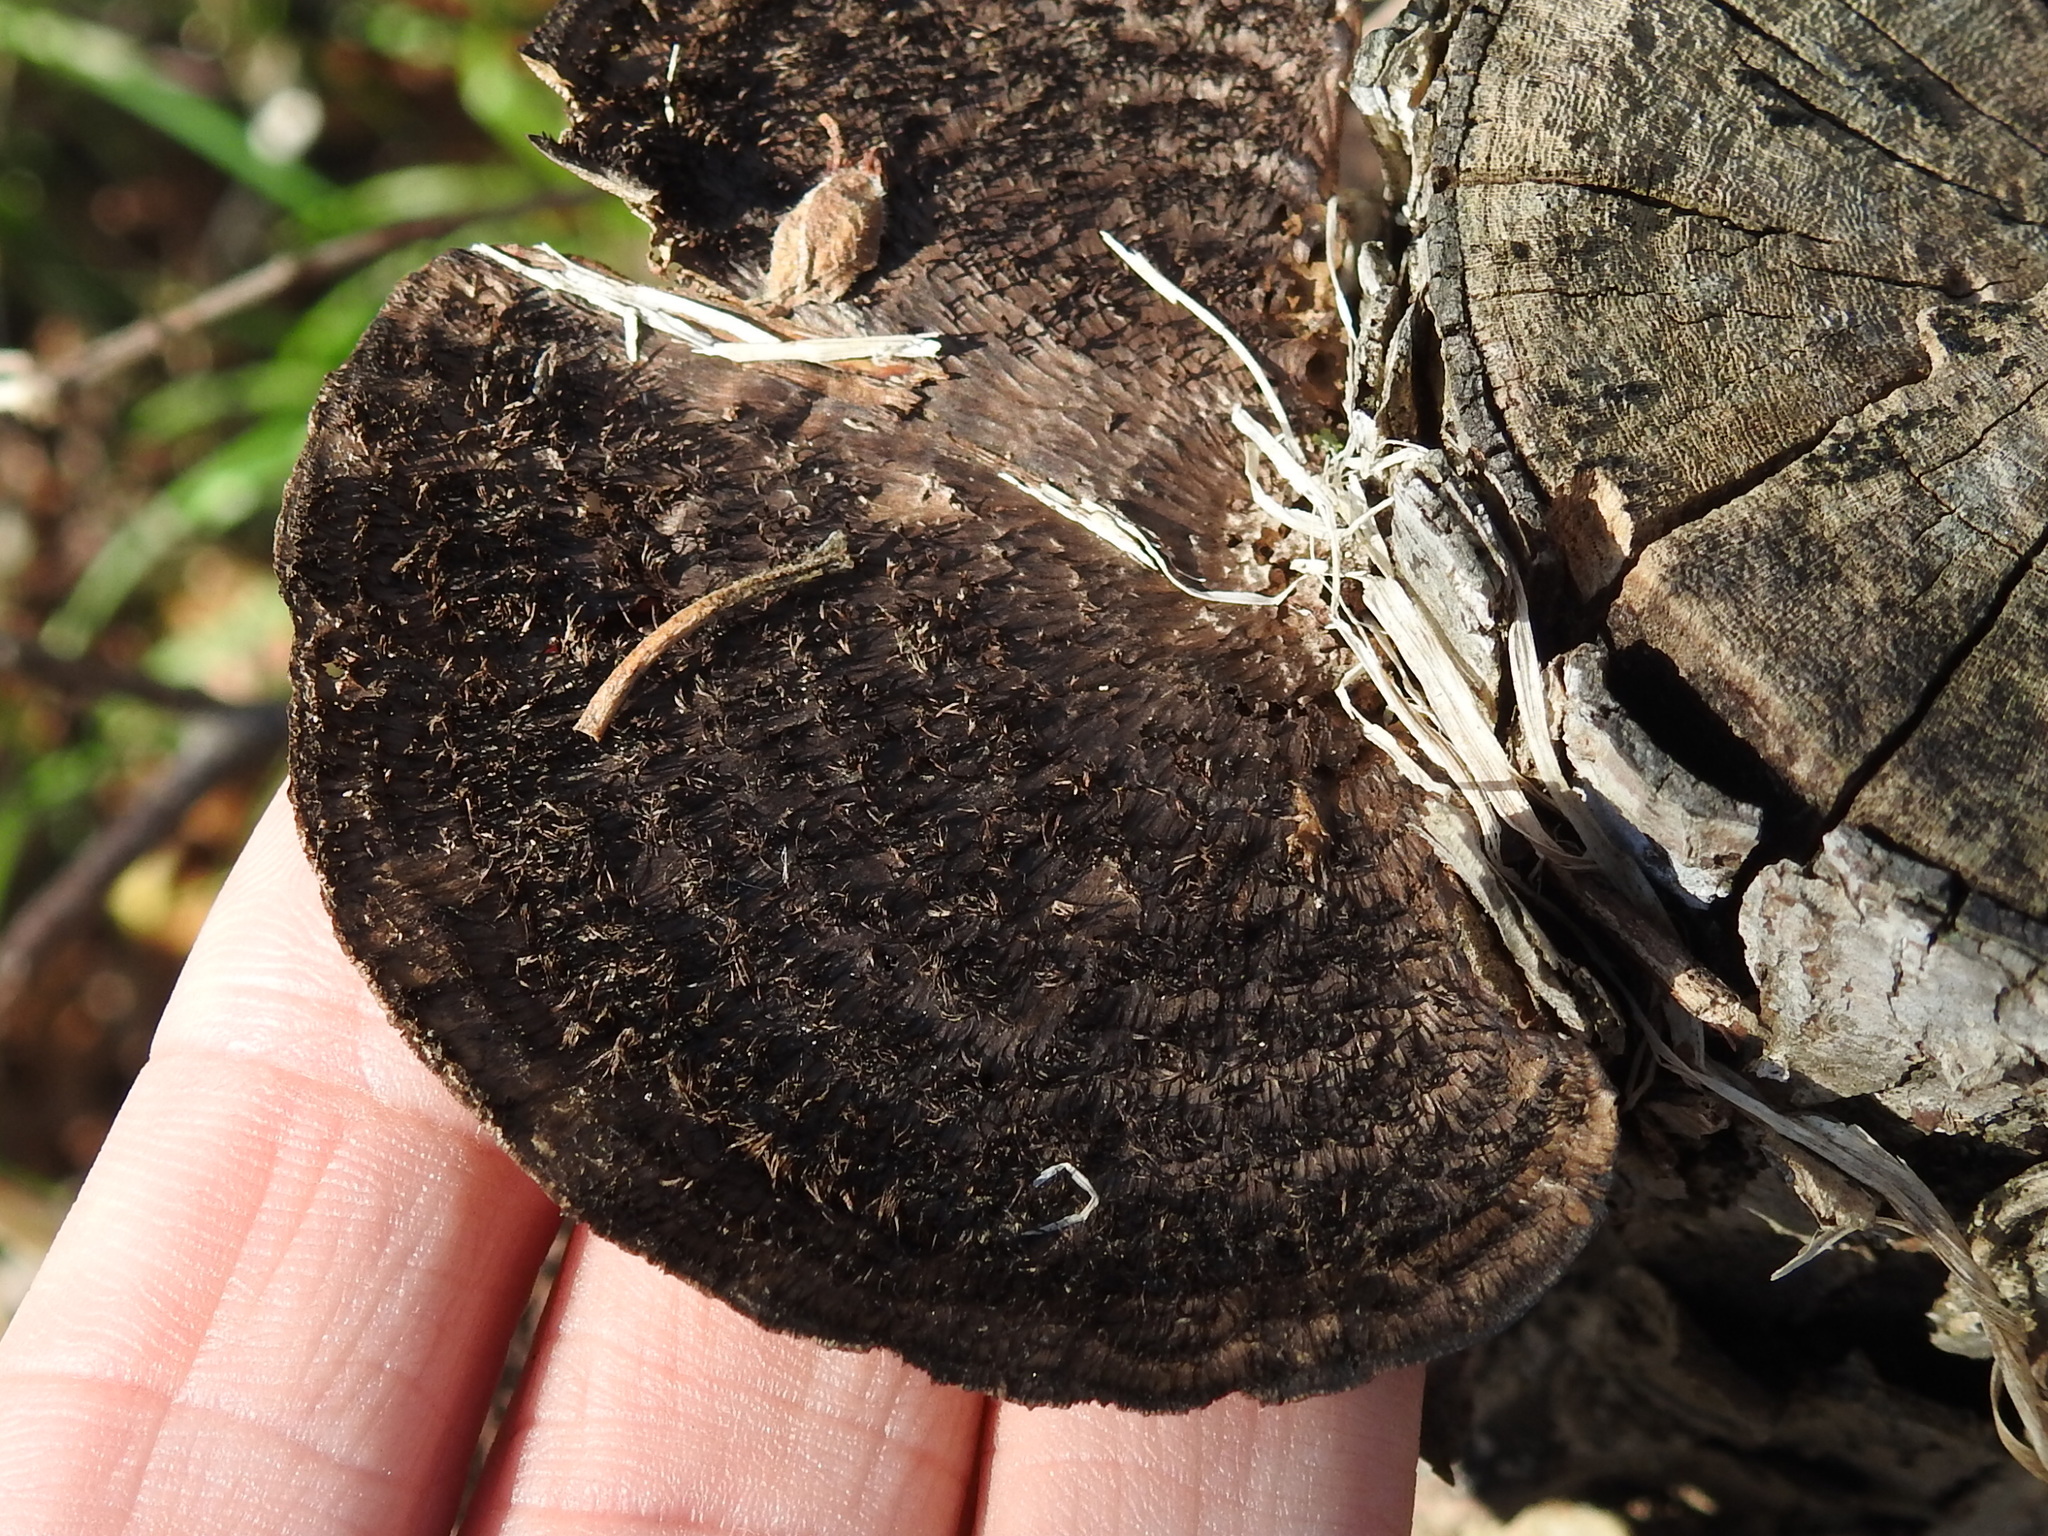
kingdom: Fungi
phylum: Basidiomycota
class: Agaricomycetes
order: Polyporales
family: Cerrenaceae
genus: Cerrena
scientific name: Cerrena hydnoides
